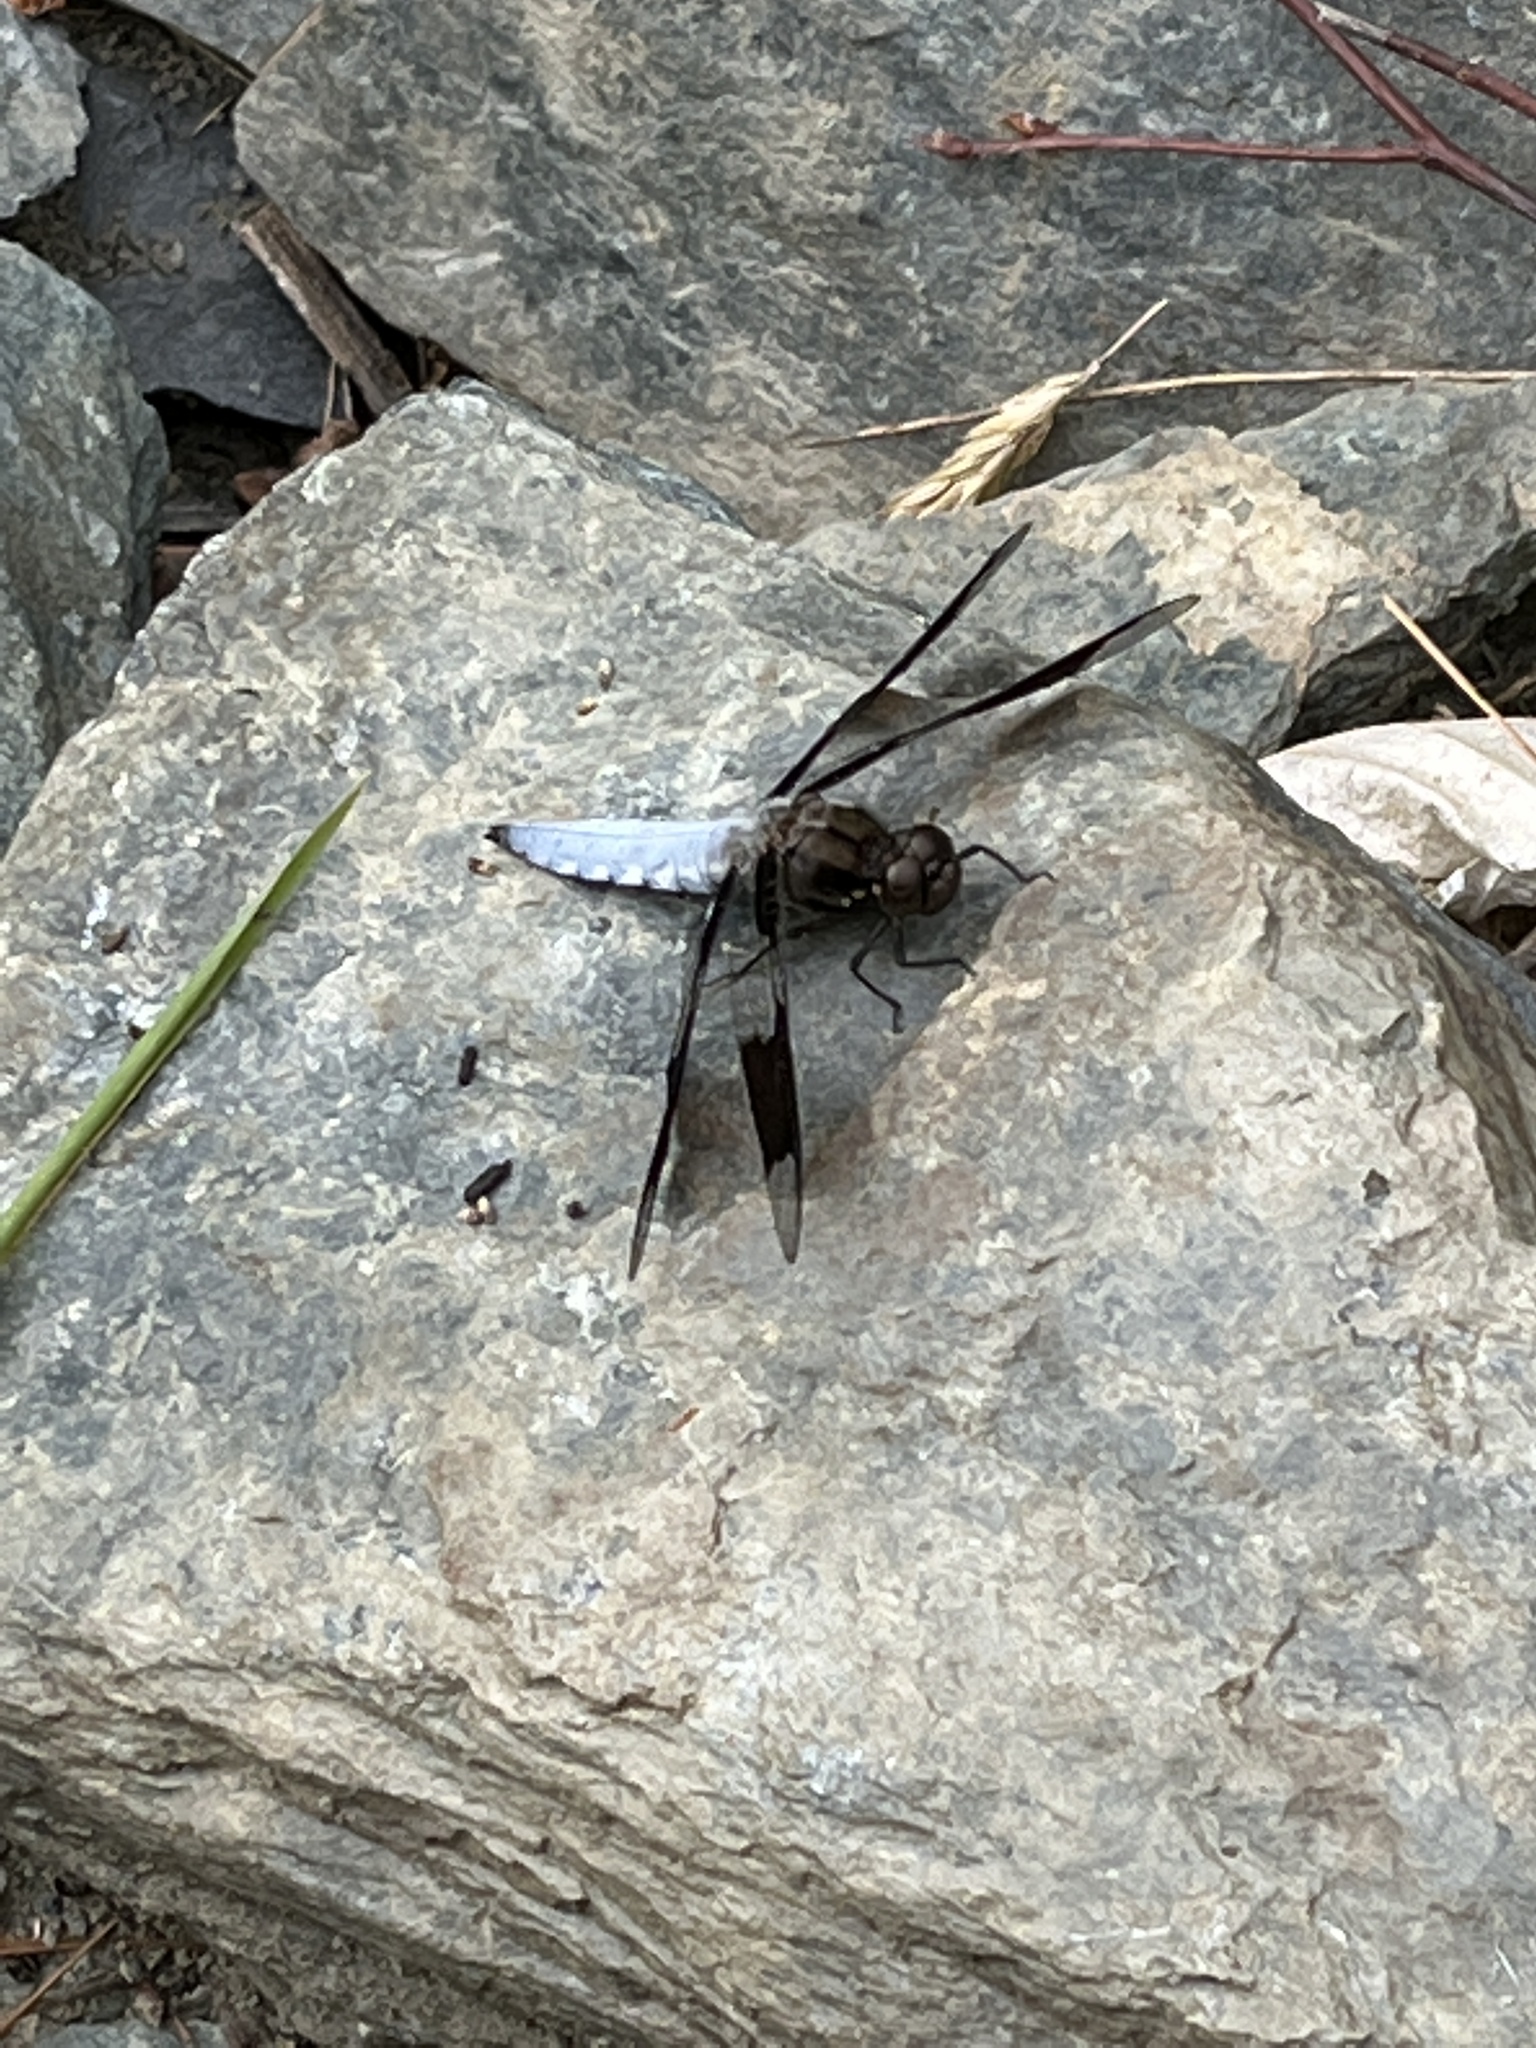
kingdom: Animalia
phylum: Arthropoda
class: Insecta
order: Odonata
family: Libellulidae
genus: Plathemis
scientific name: Plathemis lydia
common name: Common whitetail
